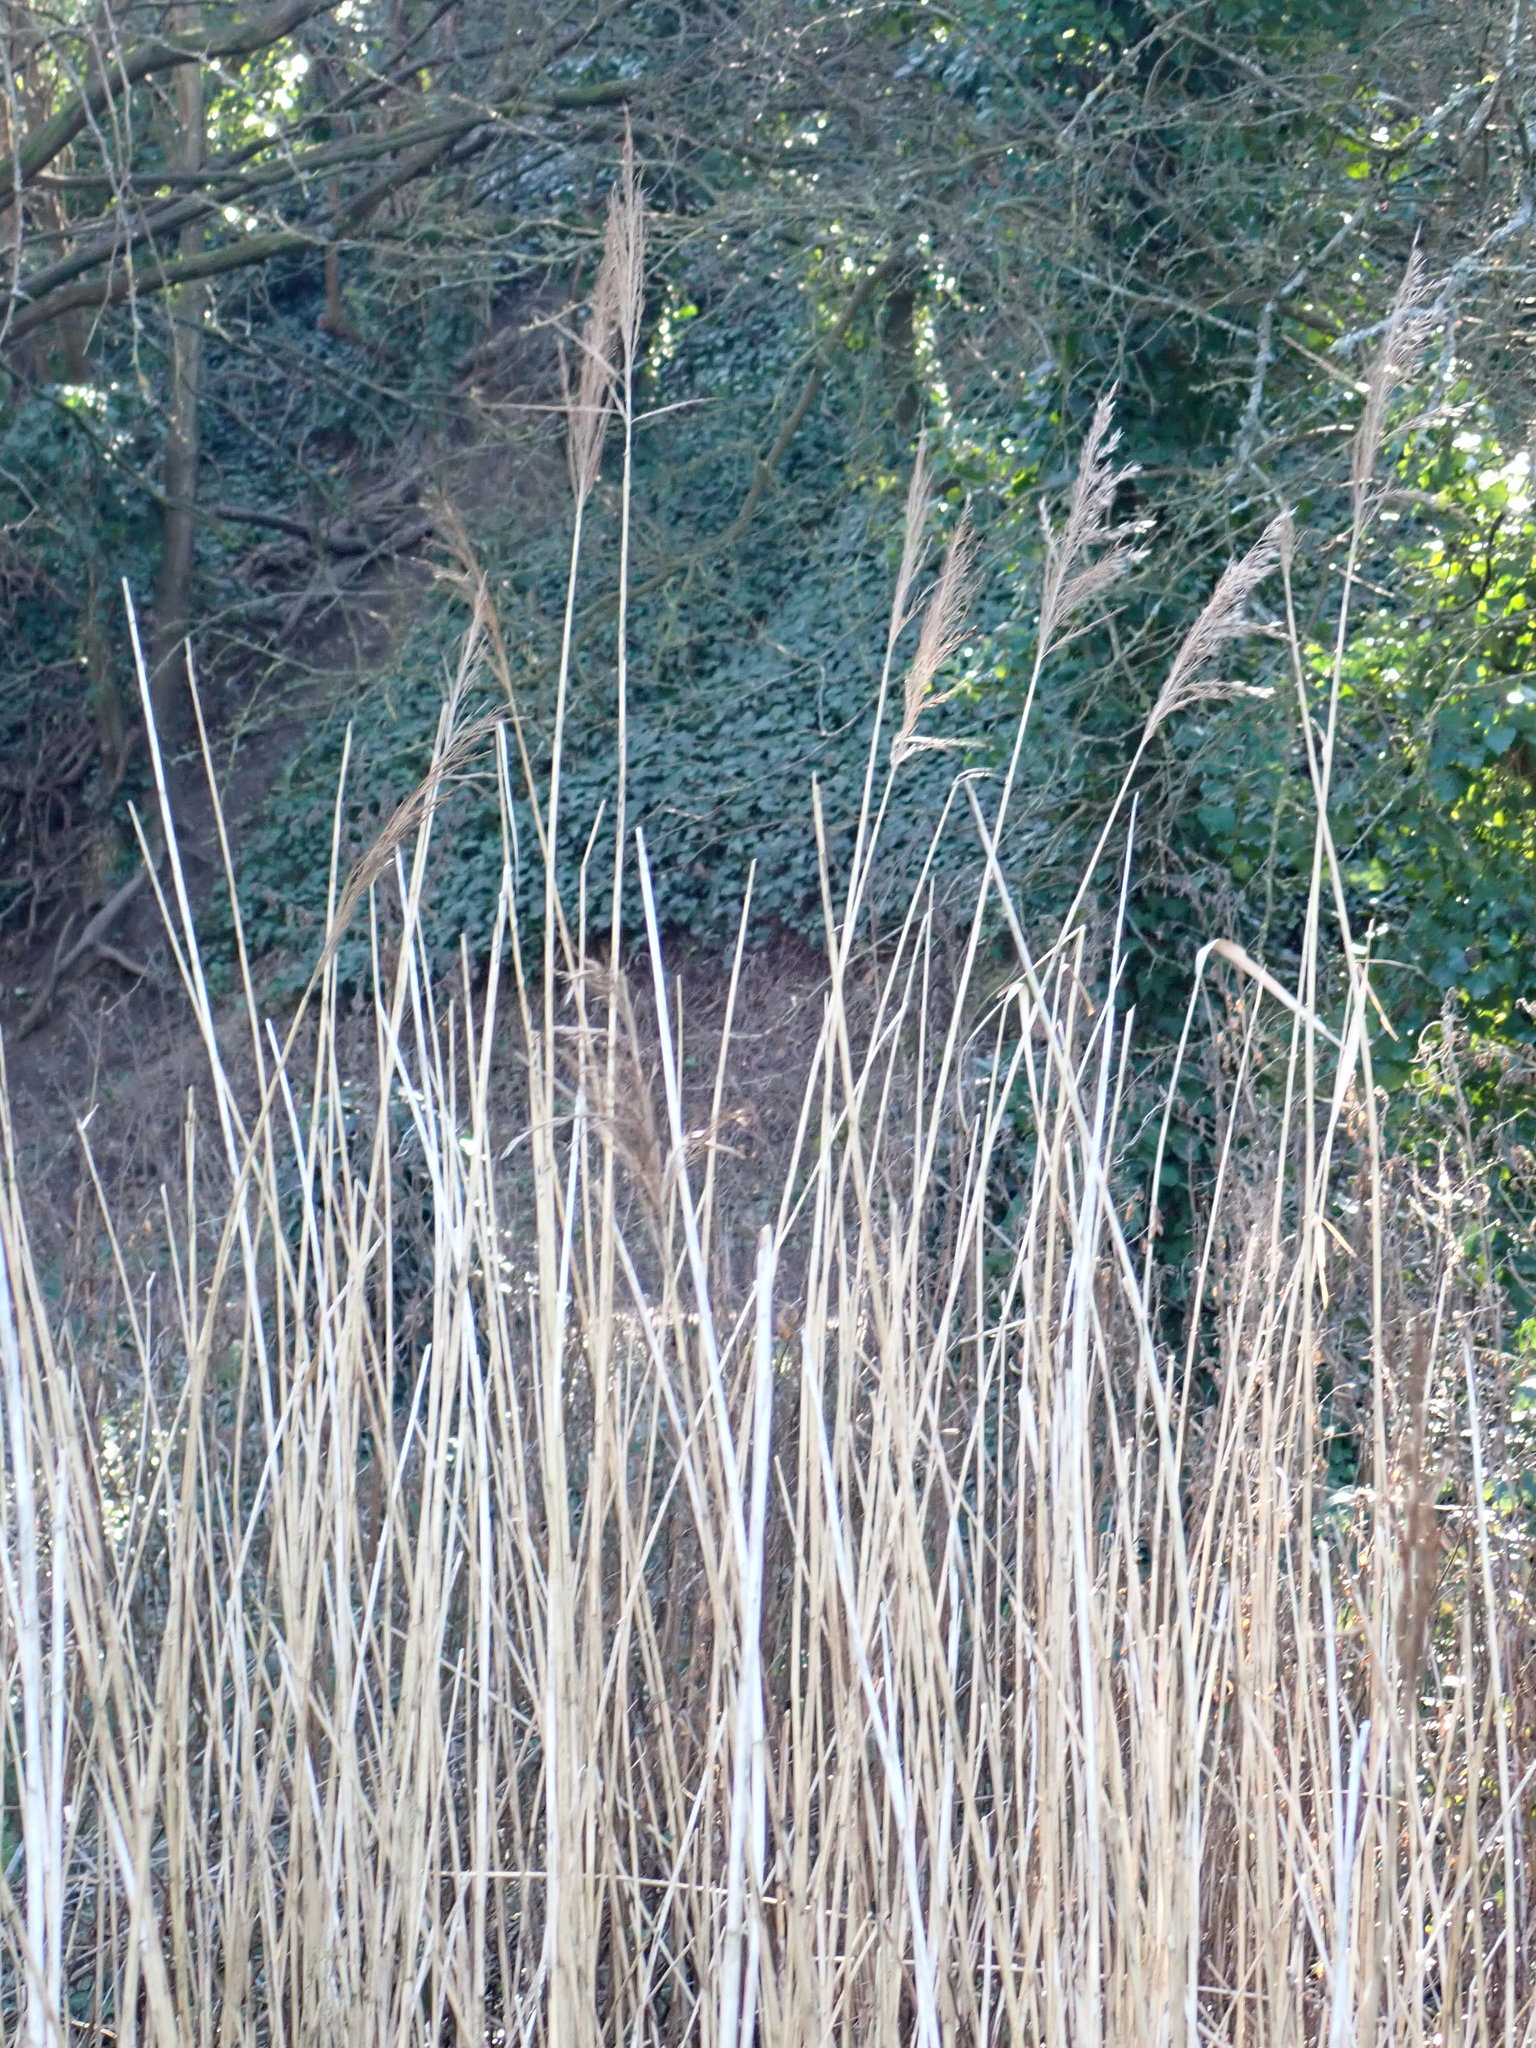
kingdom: Plantae
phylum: Tracheophyta
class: Liliopsida
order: Poales
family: Poaceae
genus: Phragmites
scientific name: Phragmites australis
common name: Common reed
